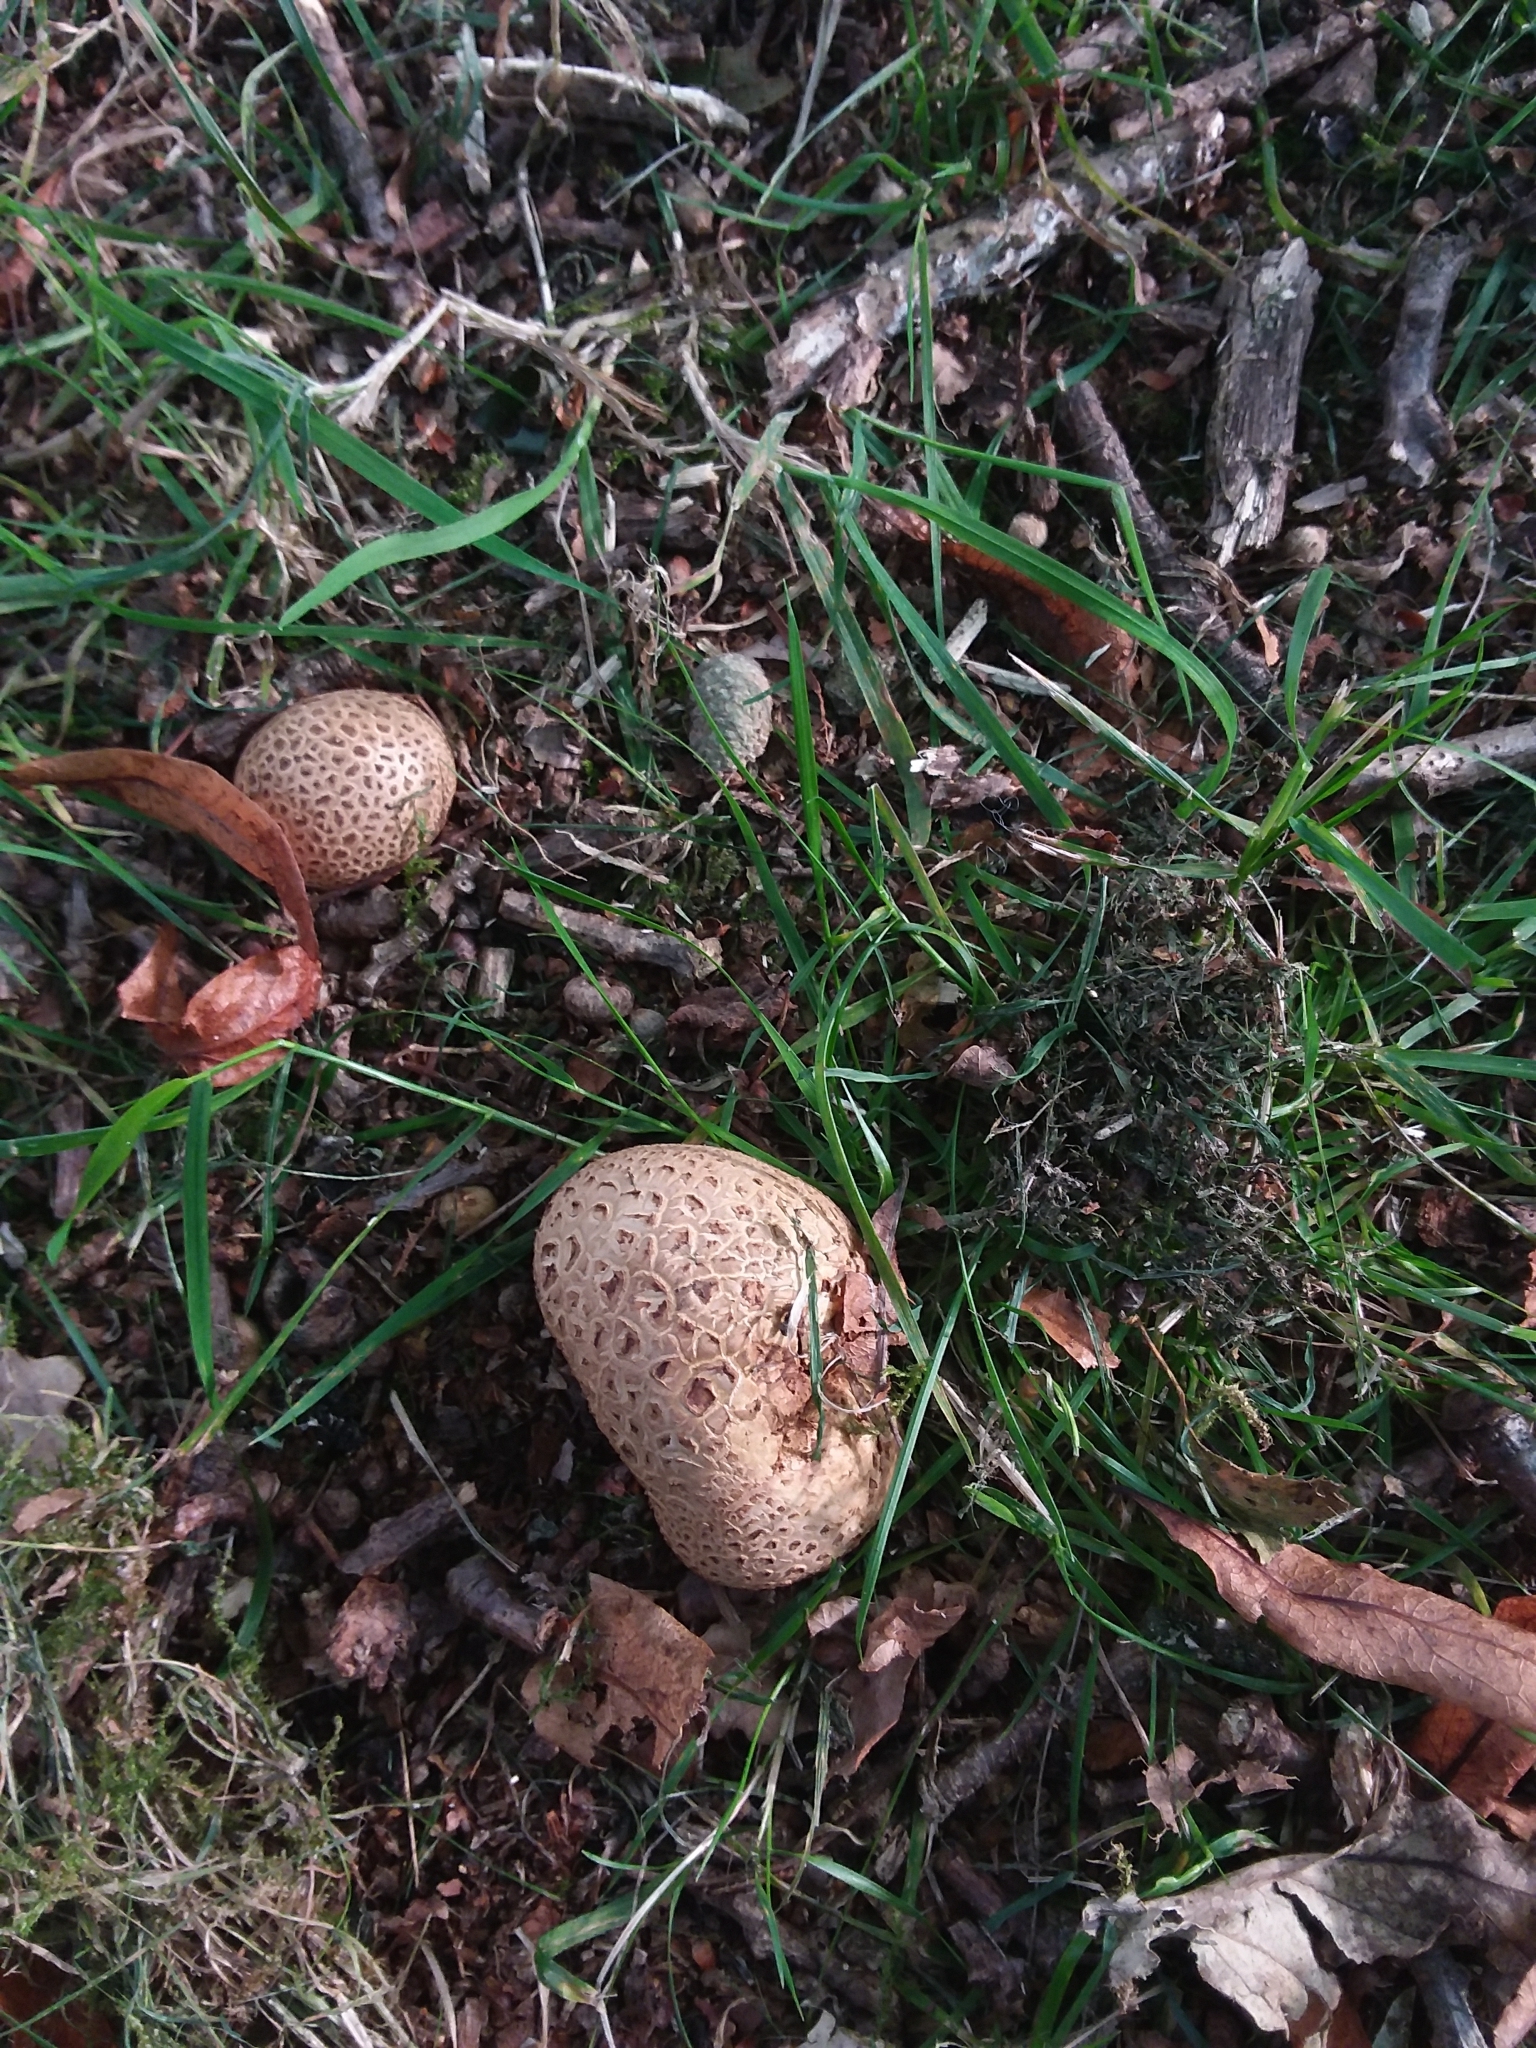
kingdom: Fungi
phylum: Basidiomycota
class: Agaricomycetes
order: Boletales
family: Sclerodermataceae
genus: Scleroderma
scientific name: Scleroderma citrinum
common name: Common earthball
